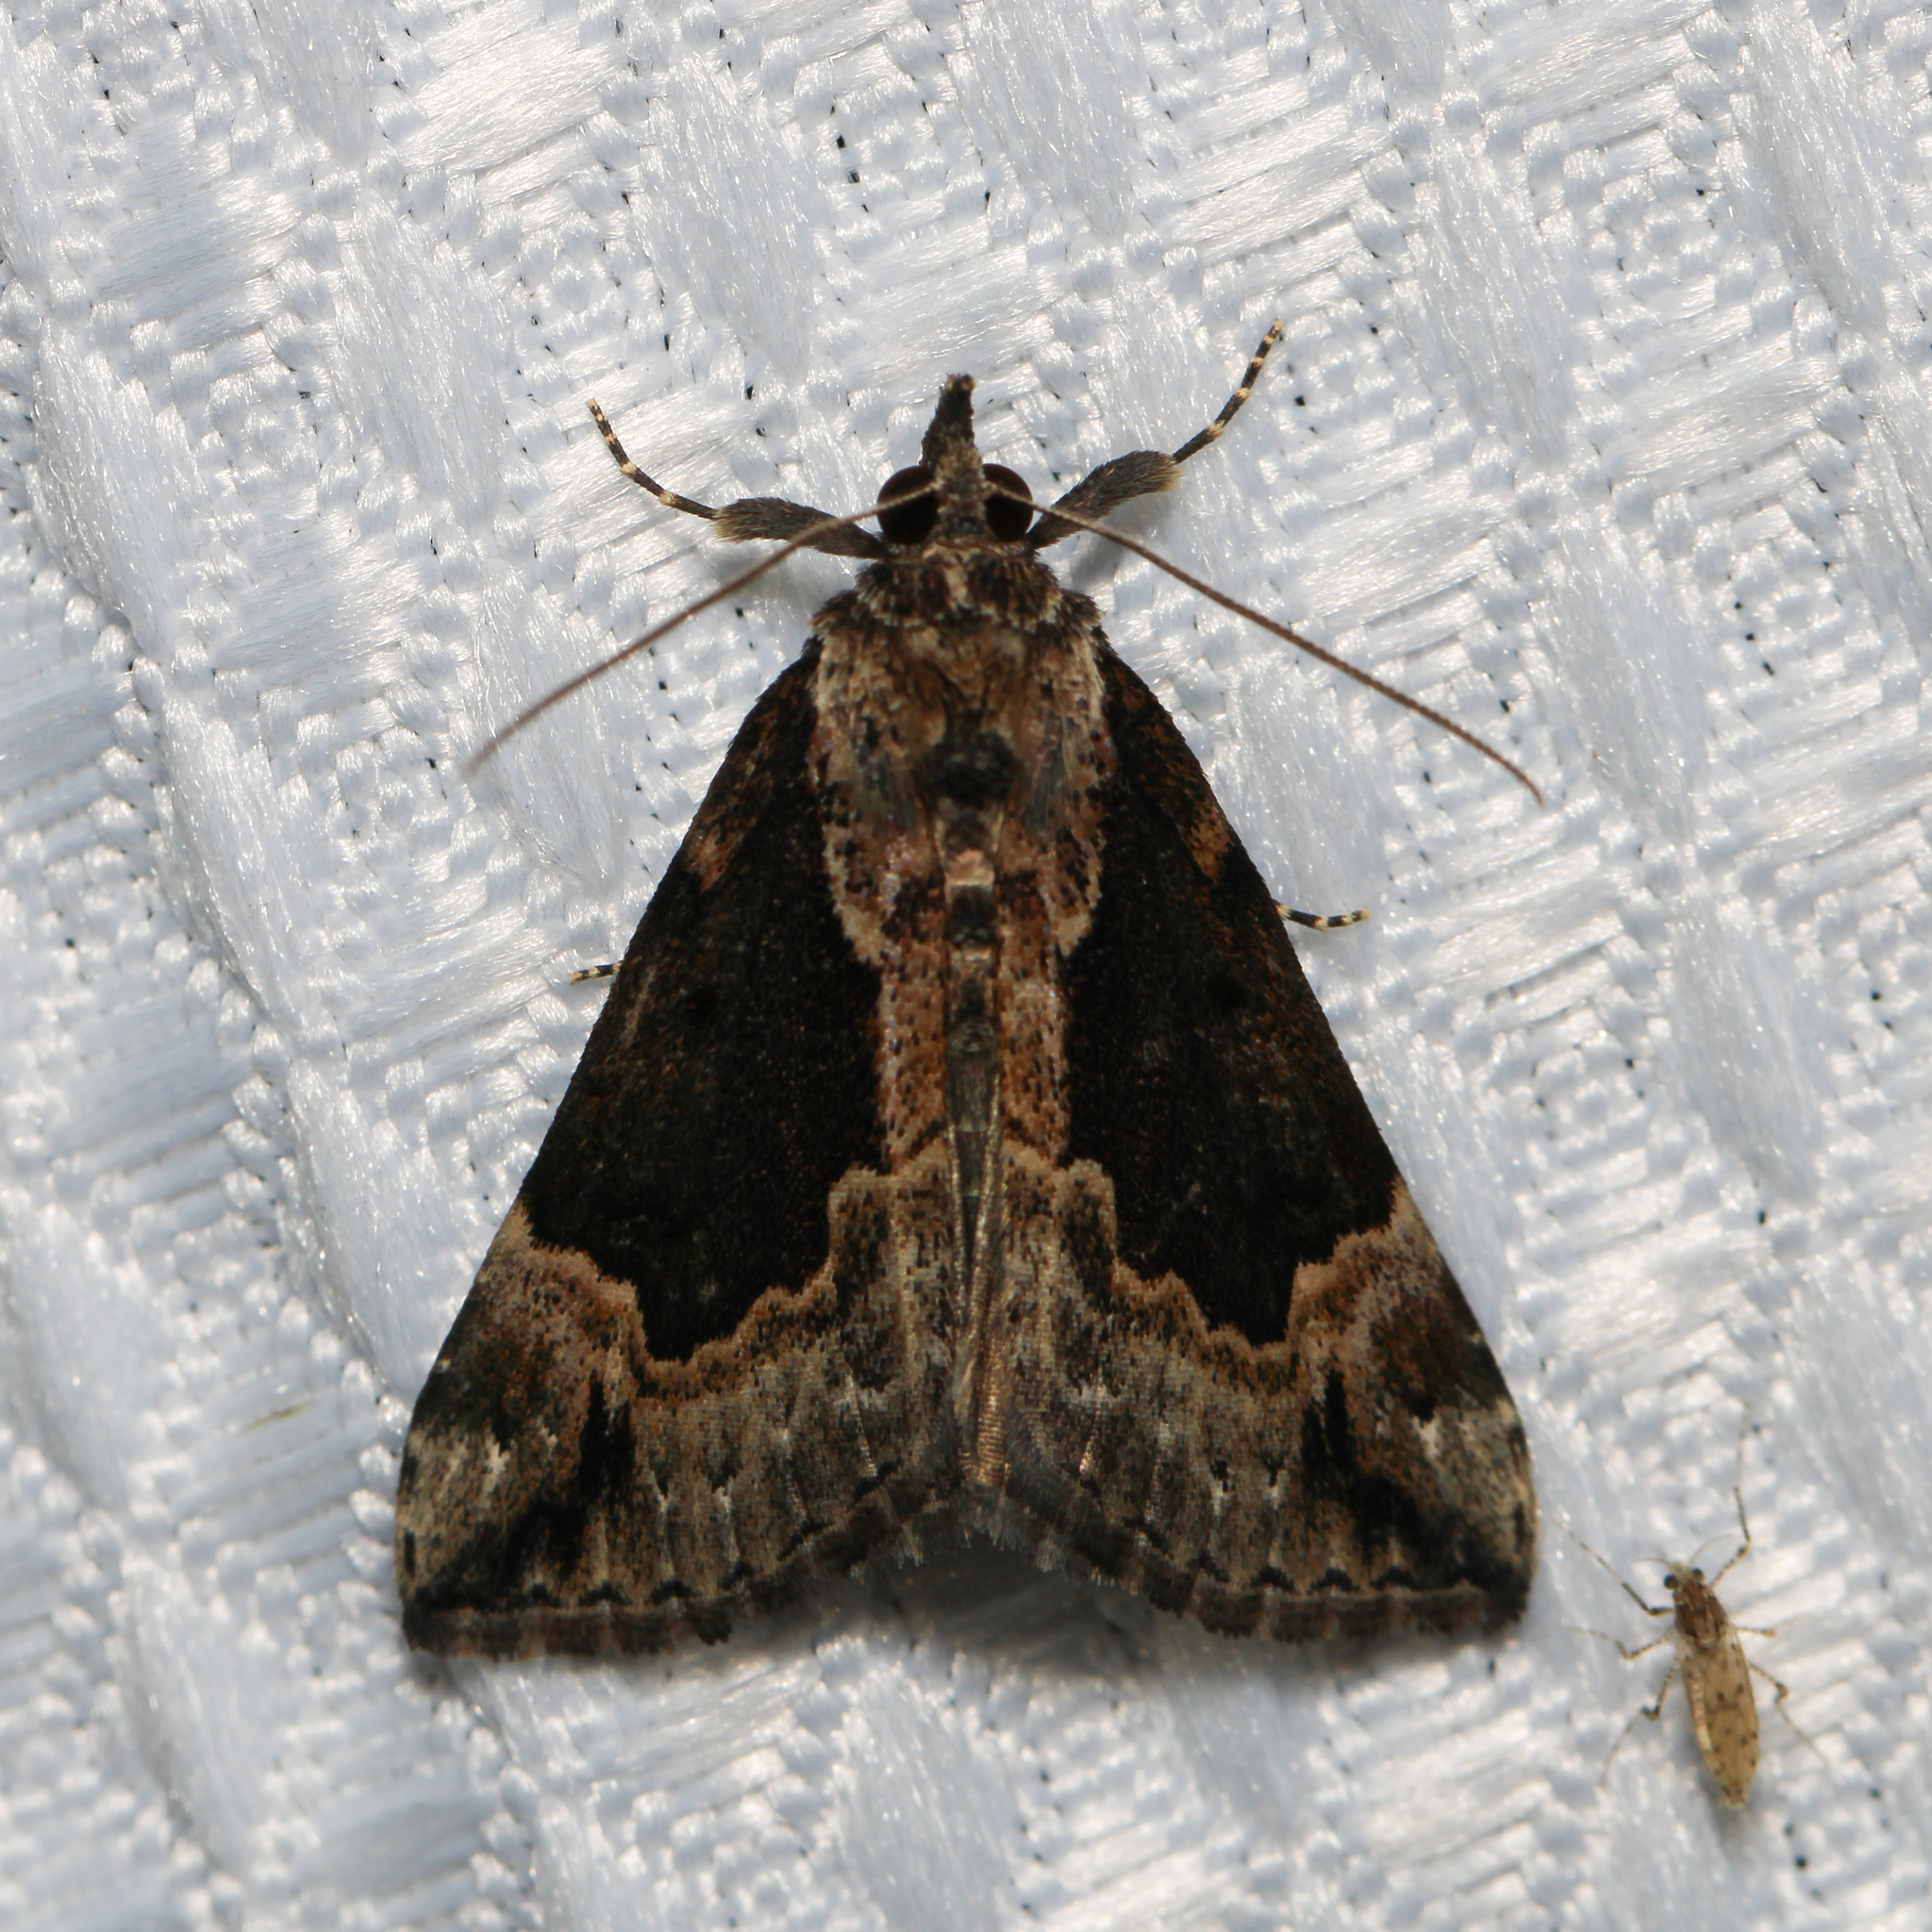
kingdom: Animalia
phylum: Arthropoda
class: Insecta
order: Lepidoptera
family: Erebidae
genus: Hypena
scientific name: Hypena baltimoralis
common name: Baltimore snout
